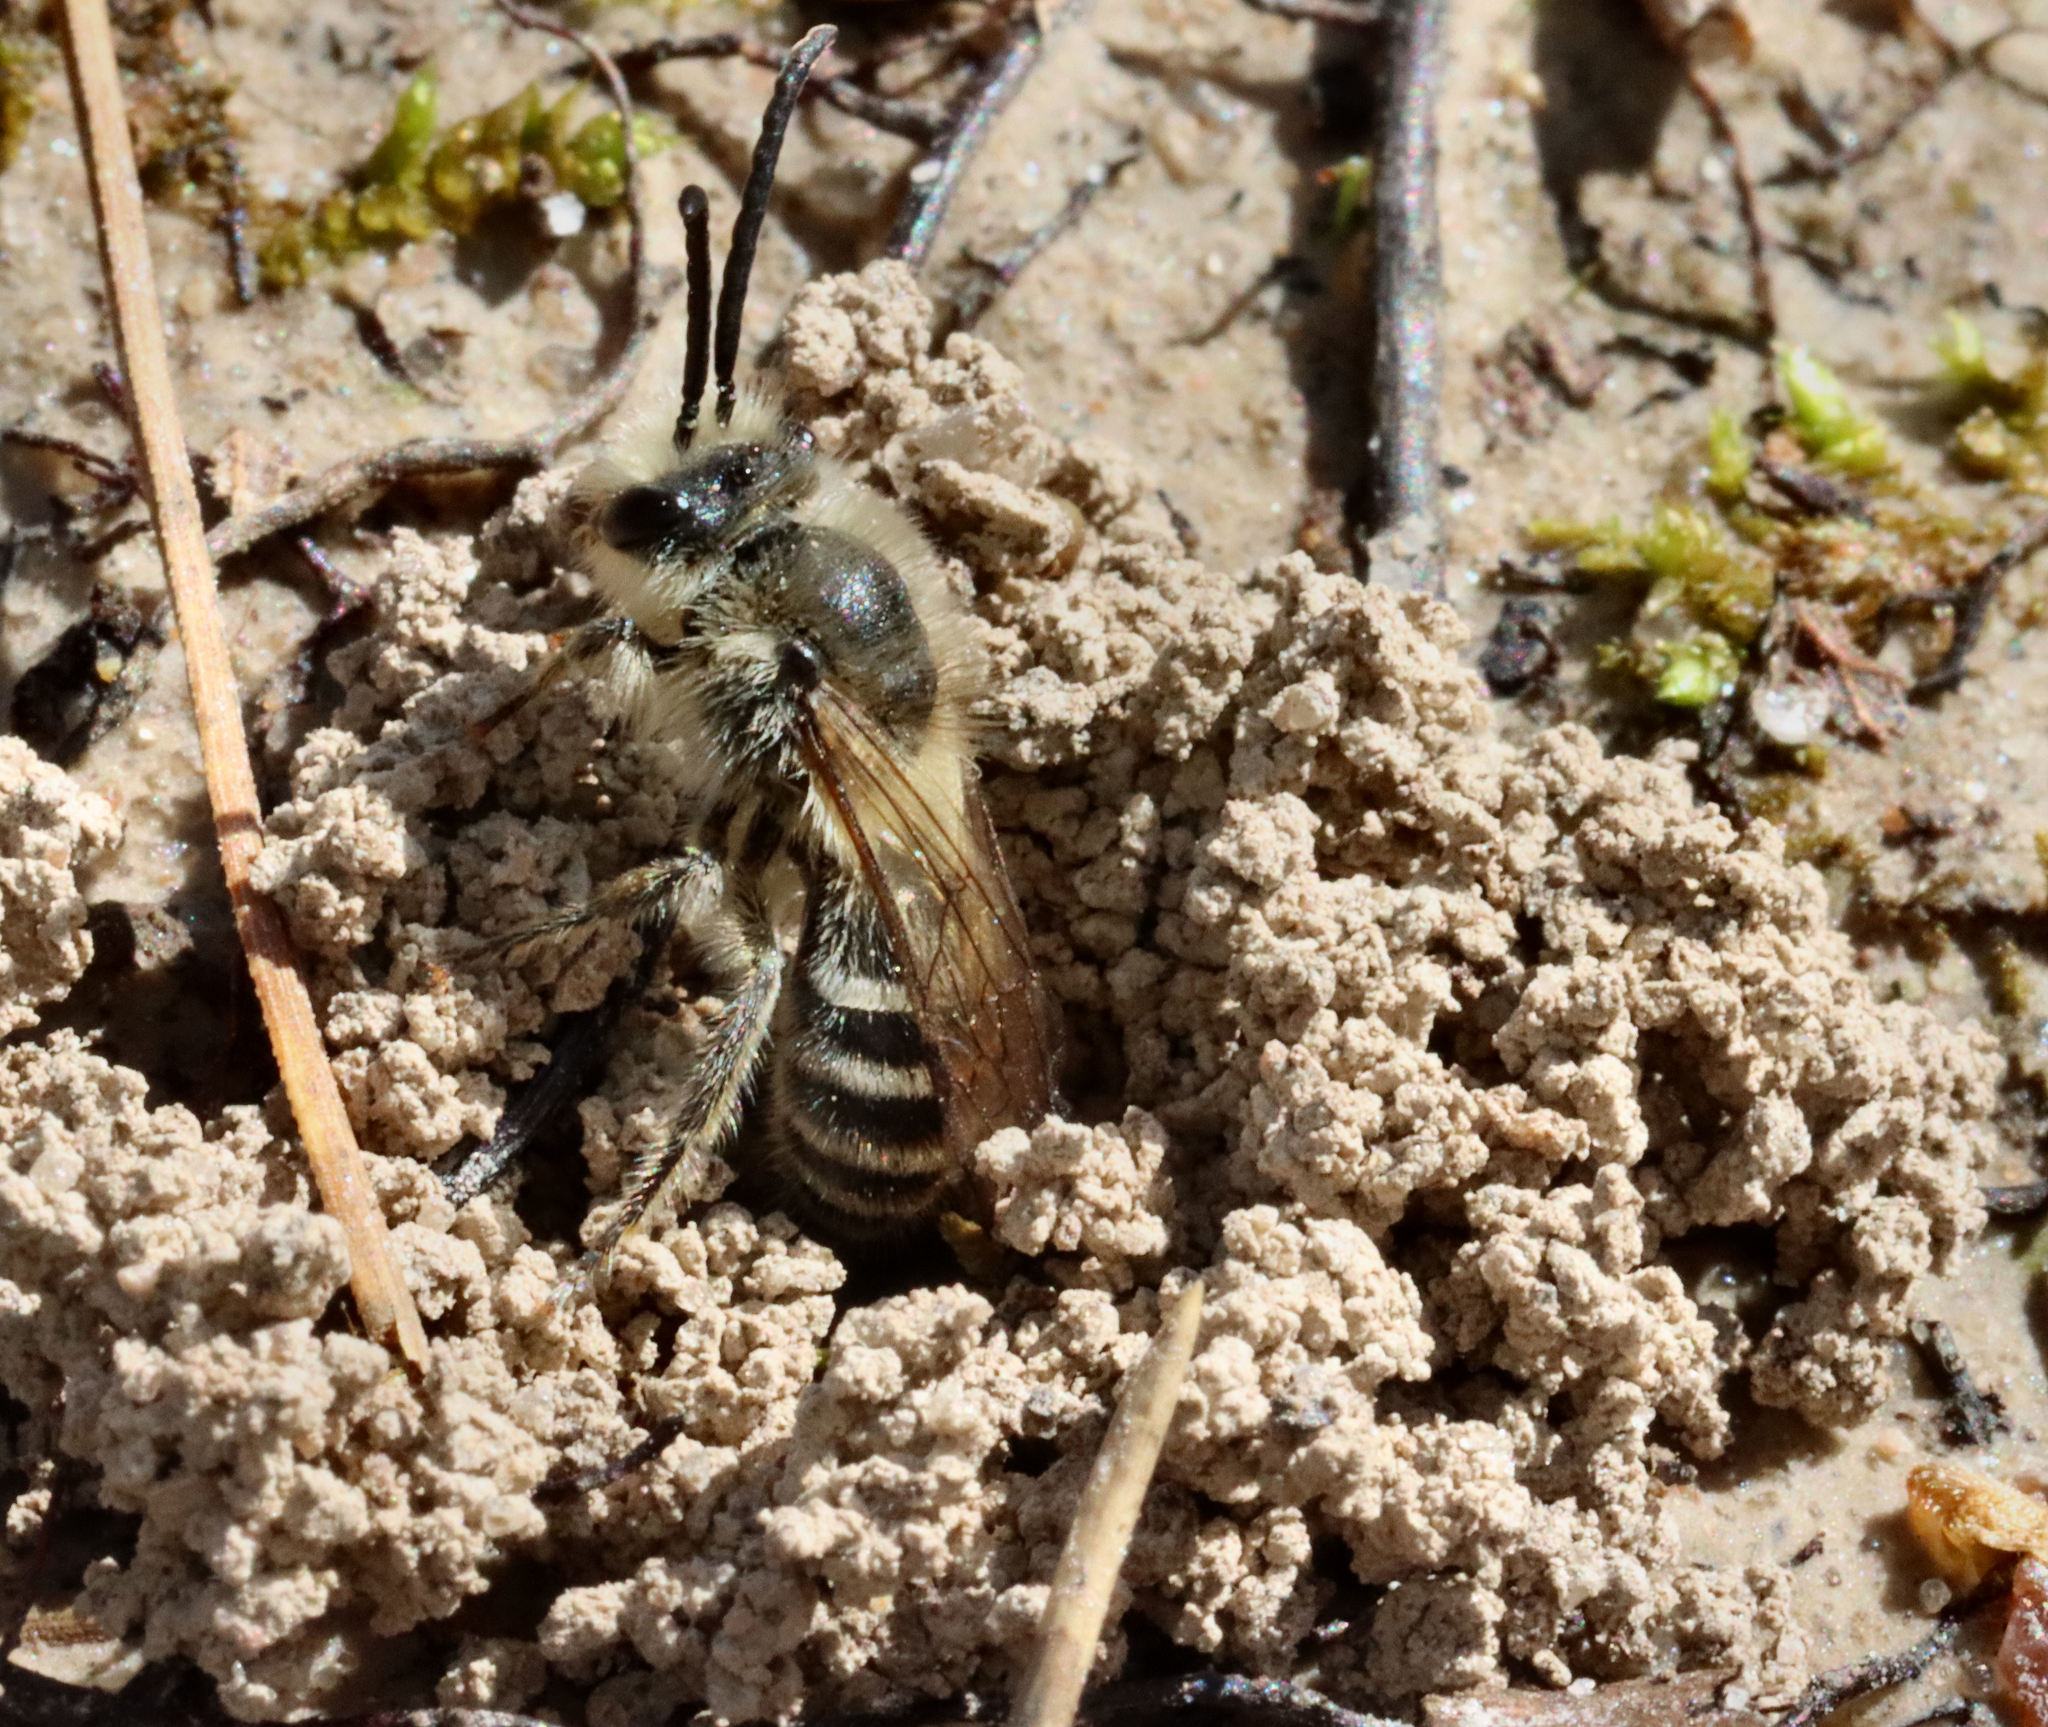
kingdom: Animalia
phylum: Arthropoda
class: Insecta
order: Hymenoptera
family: Colletidae
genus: Colletes
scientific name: Colletes inaequalis
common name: Unequal cellophane bee
